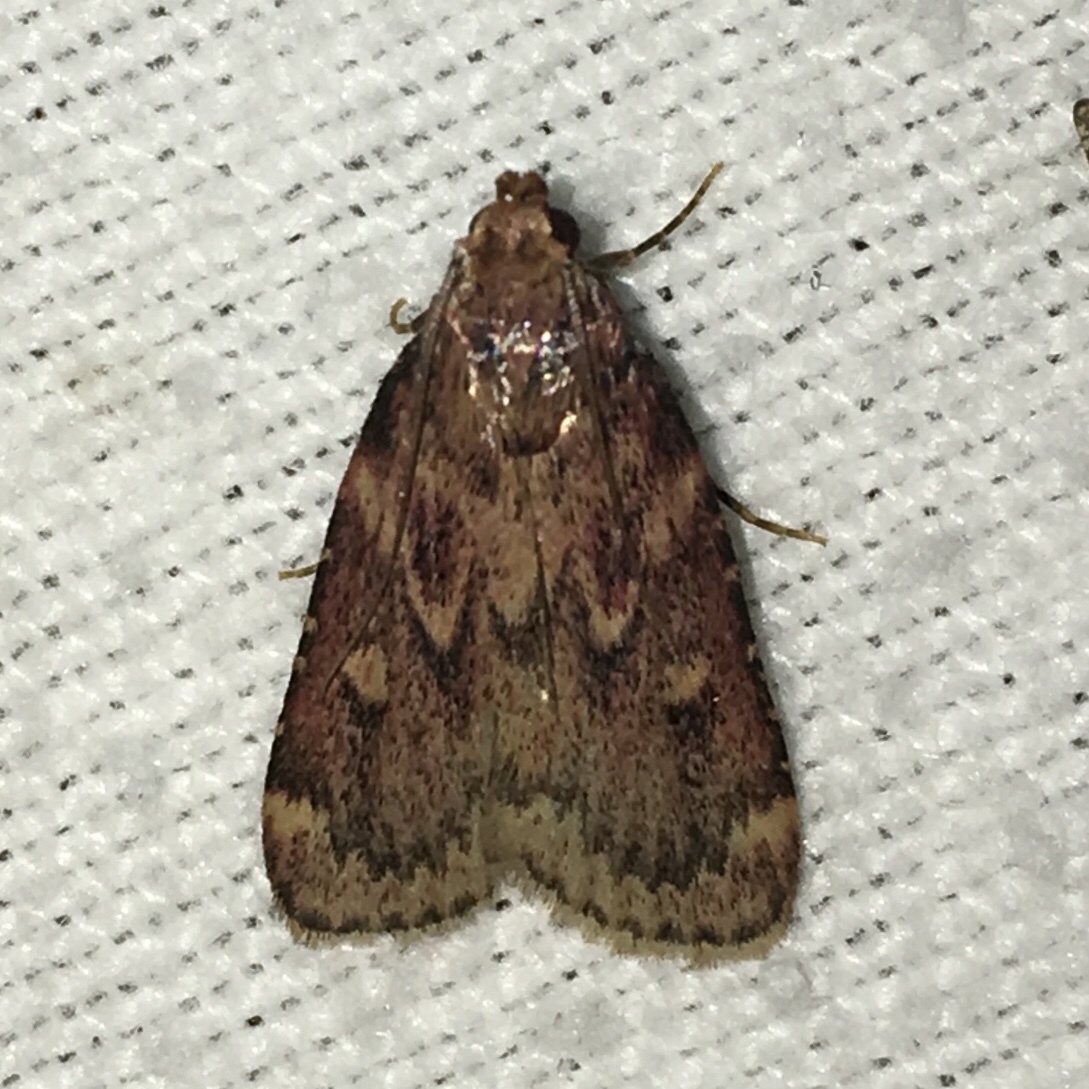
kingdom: Animalia
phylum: Arthropoda
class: Insecta
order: Lepidoptera
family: Pyralidae
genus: Aglossa
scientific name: Aglossa cuprina
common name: Grease moth
